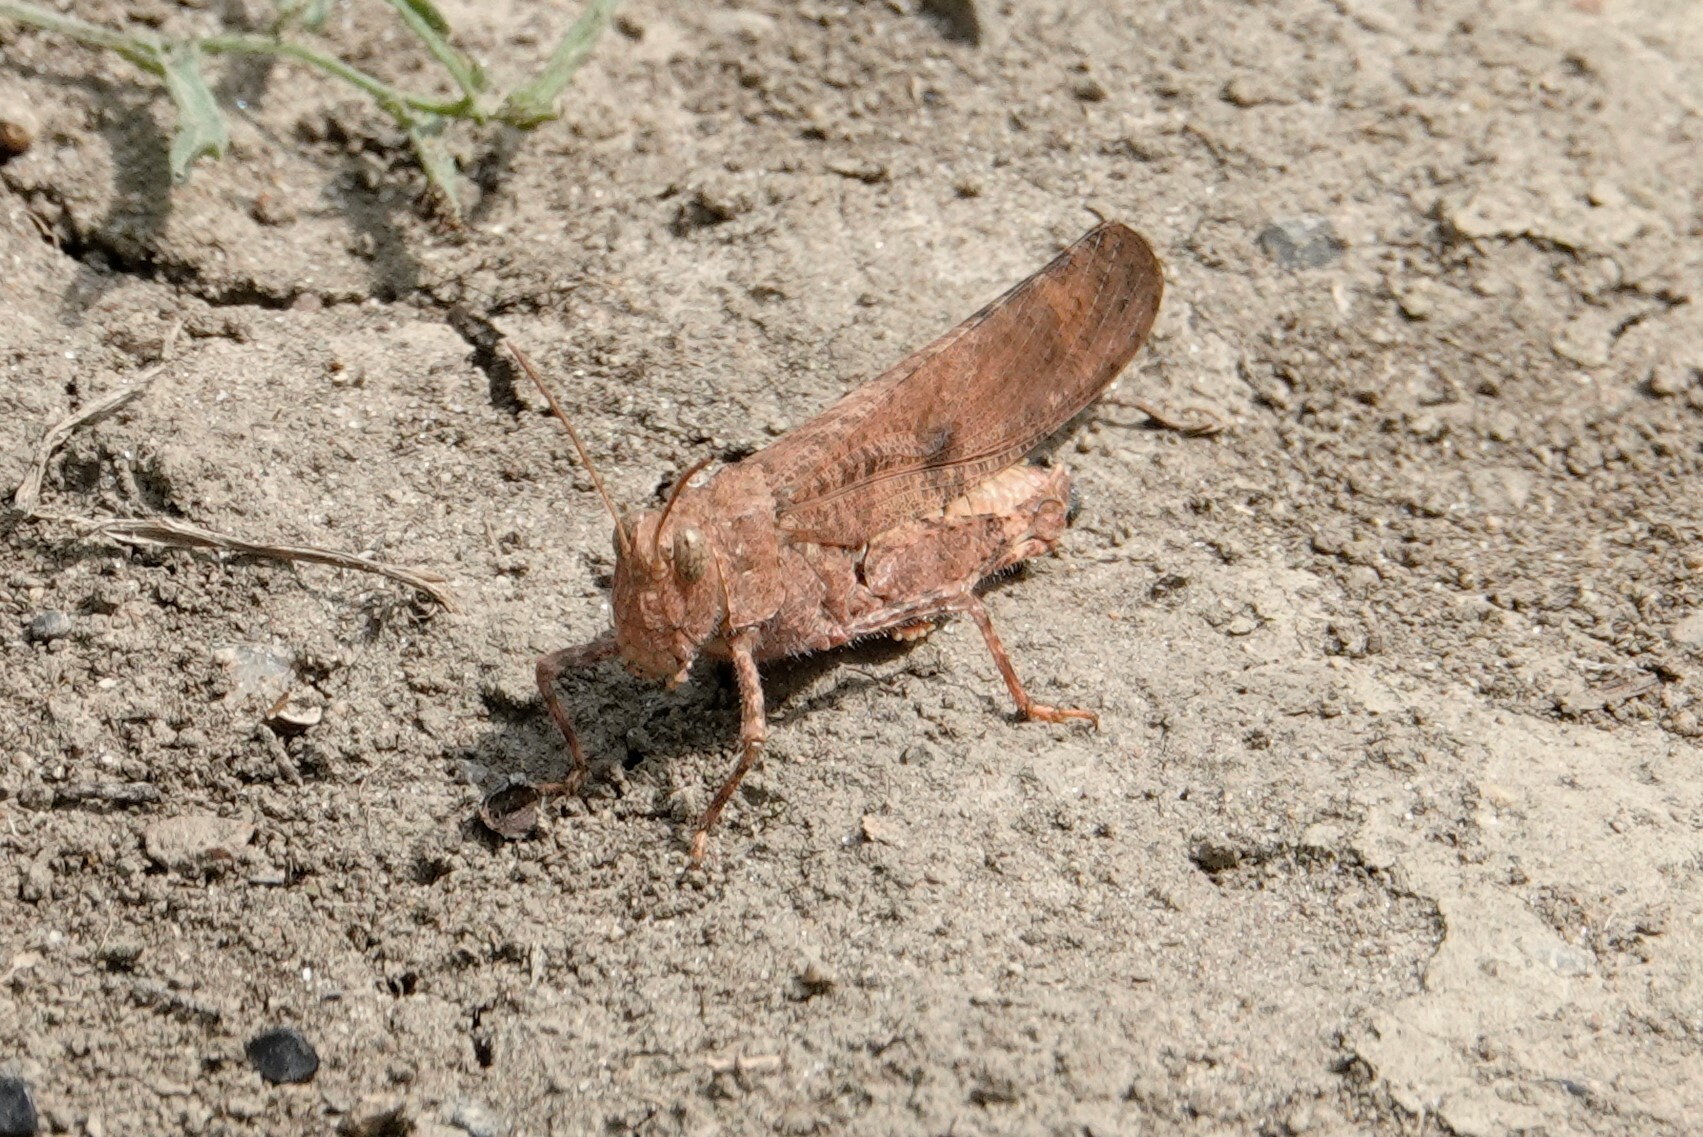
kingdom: Animalia
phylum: Arthropoda
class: Insecta
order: Orthoptera
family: Acrididae
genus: Dissosteira
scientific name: Dissosteira carolina
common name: Carolina grasshopper
